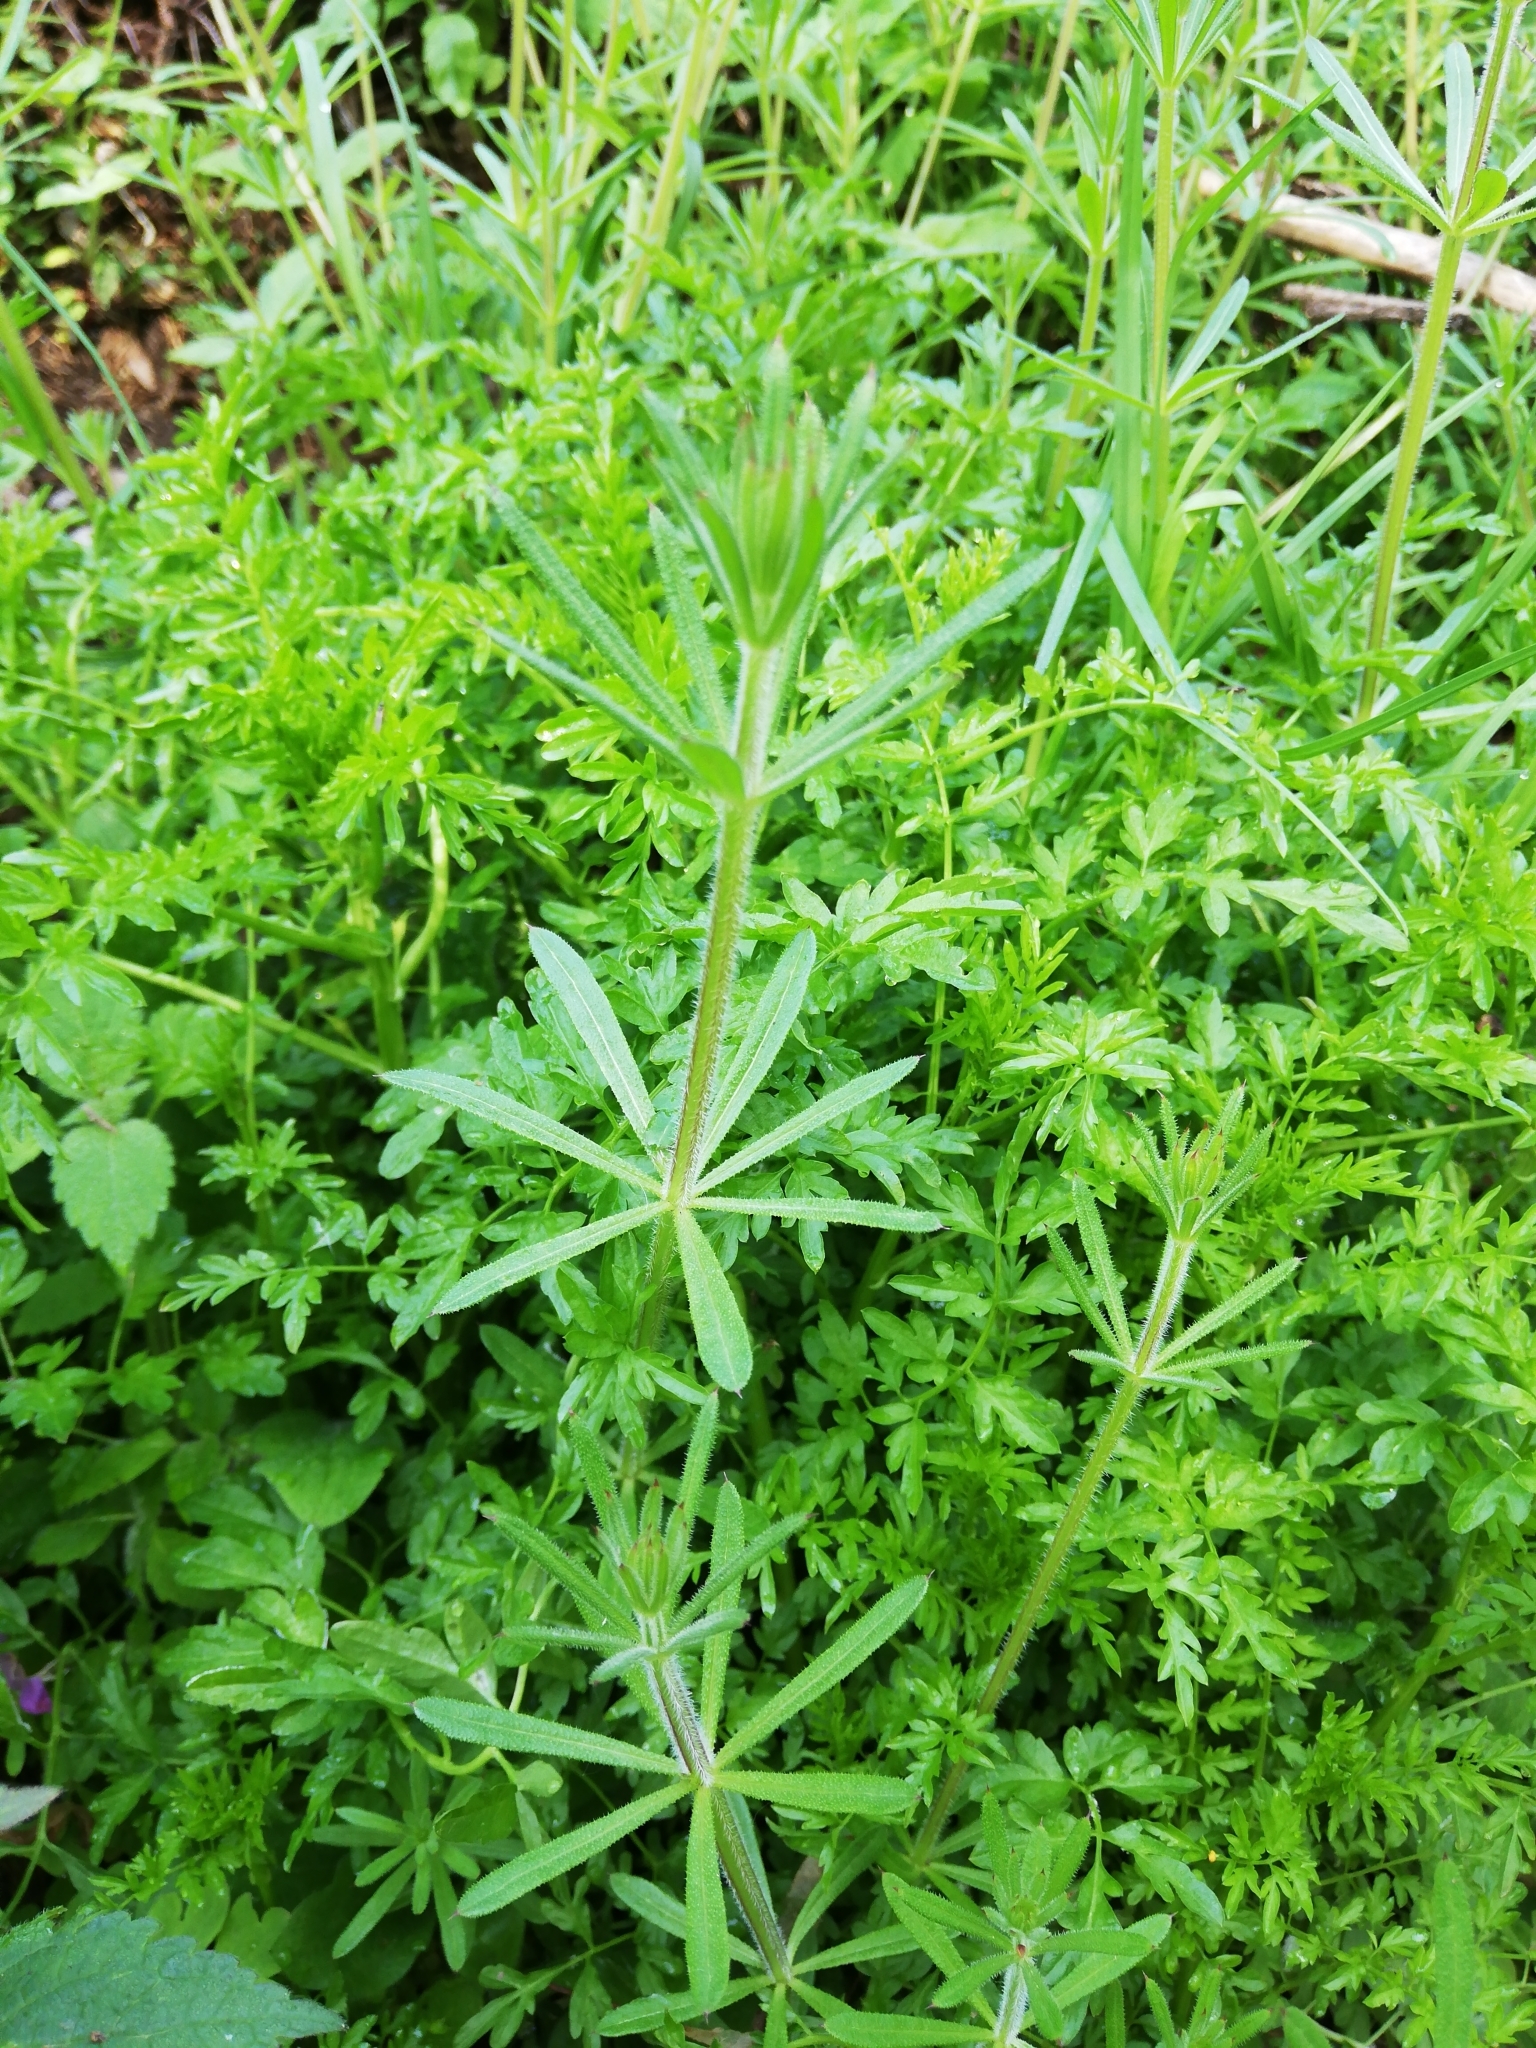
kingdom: Plantae
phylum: Tracheophyta
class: Magnoliopsida
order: Gentianales
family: Rubiaceae
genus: Galium
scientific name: Galium aparine
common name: Cleavers
